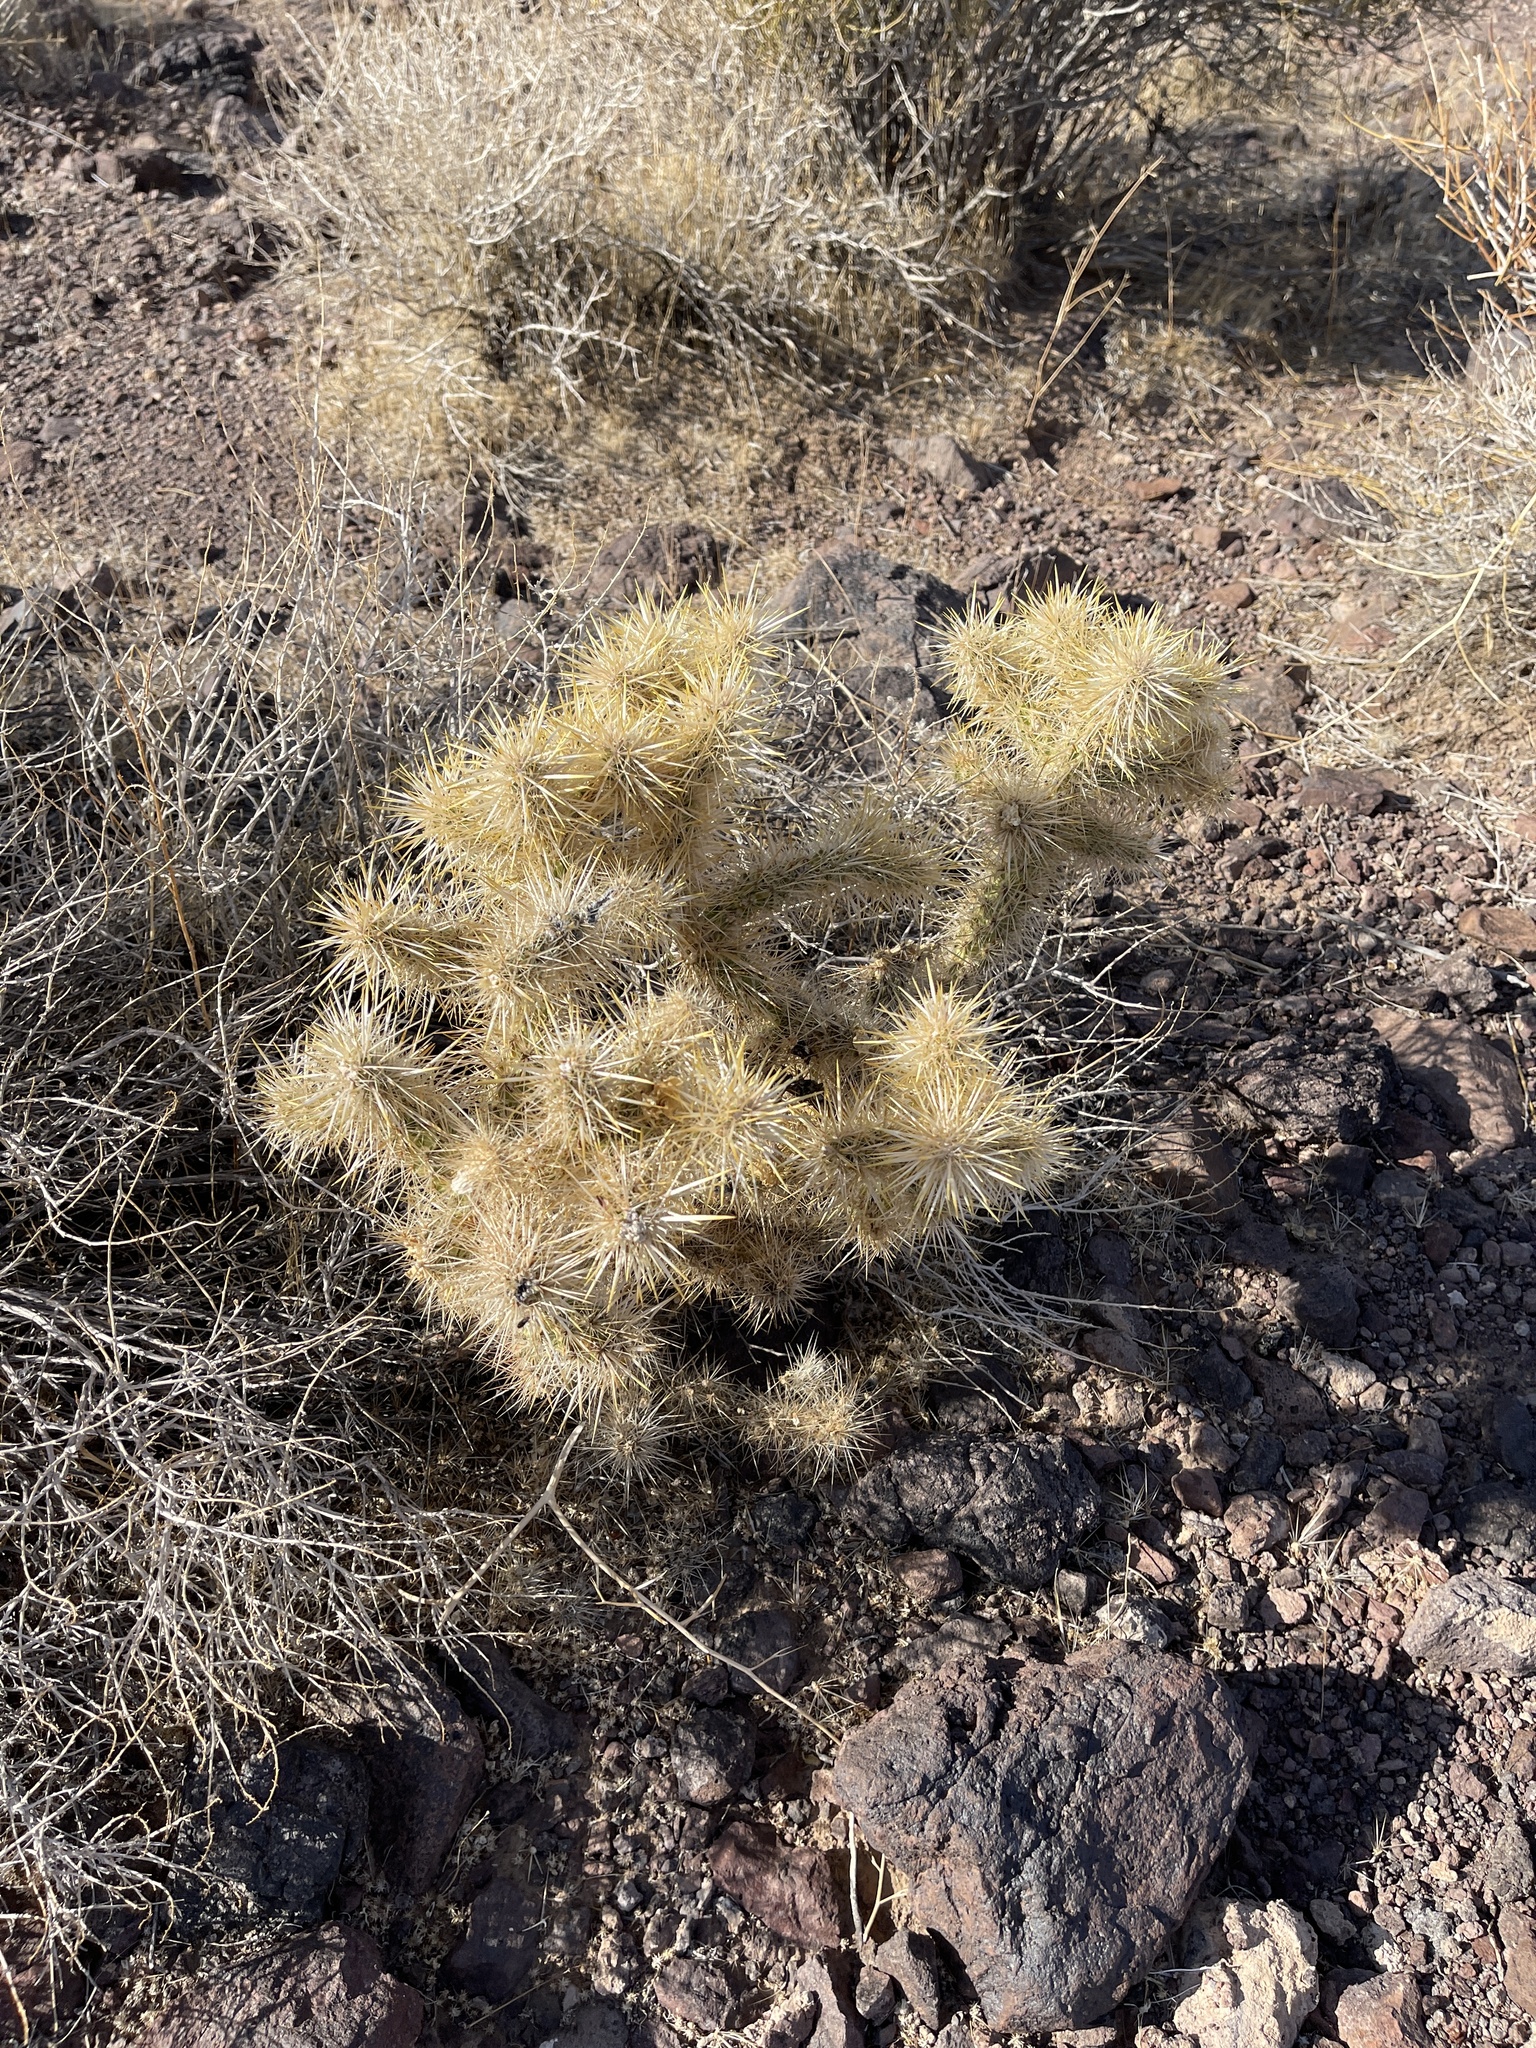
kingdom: Plantae
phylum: Tracheophyta
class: Magnoliopsida
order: Caryophyllales
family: Cactaceae
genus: Cylindropuntia
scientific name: Cylindropuntia echinocarpa
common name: Ground cholla
